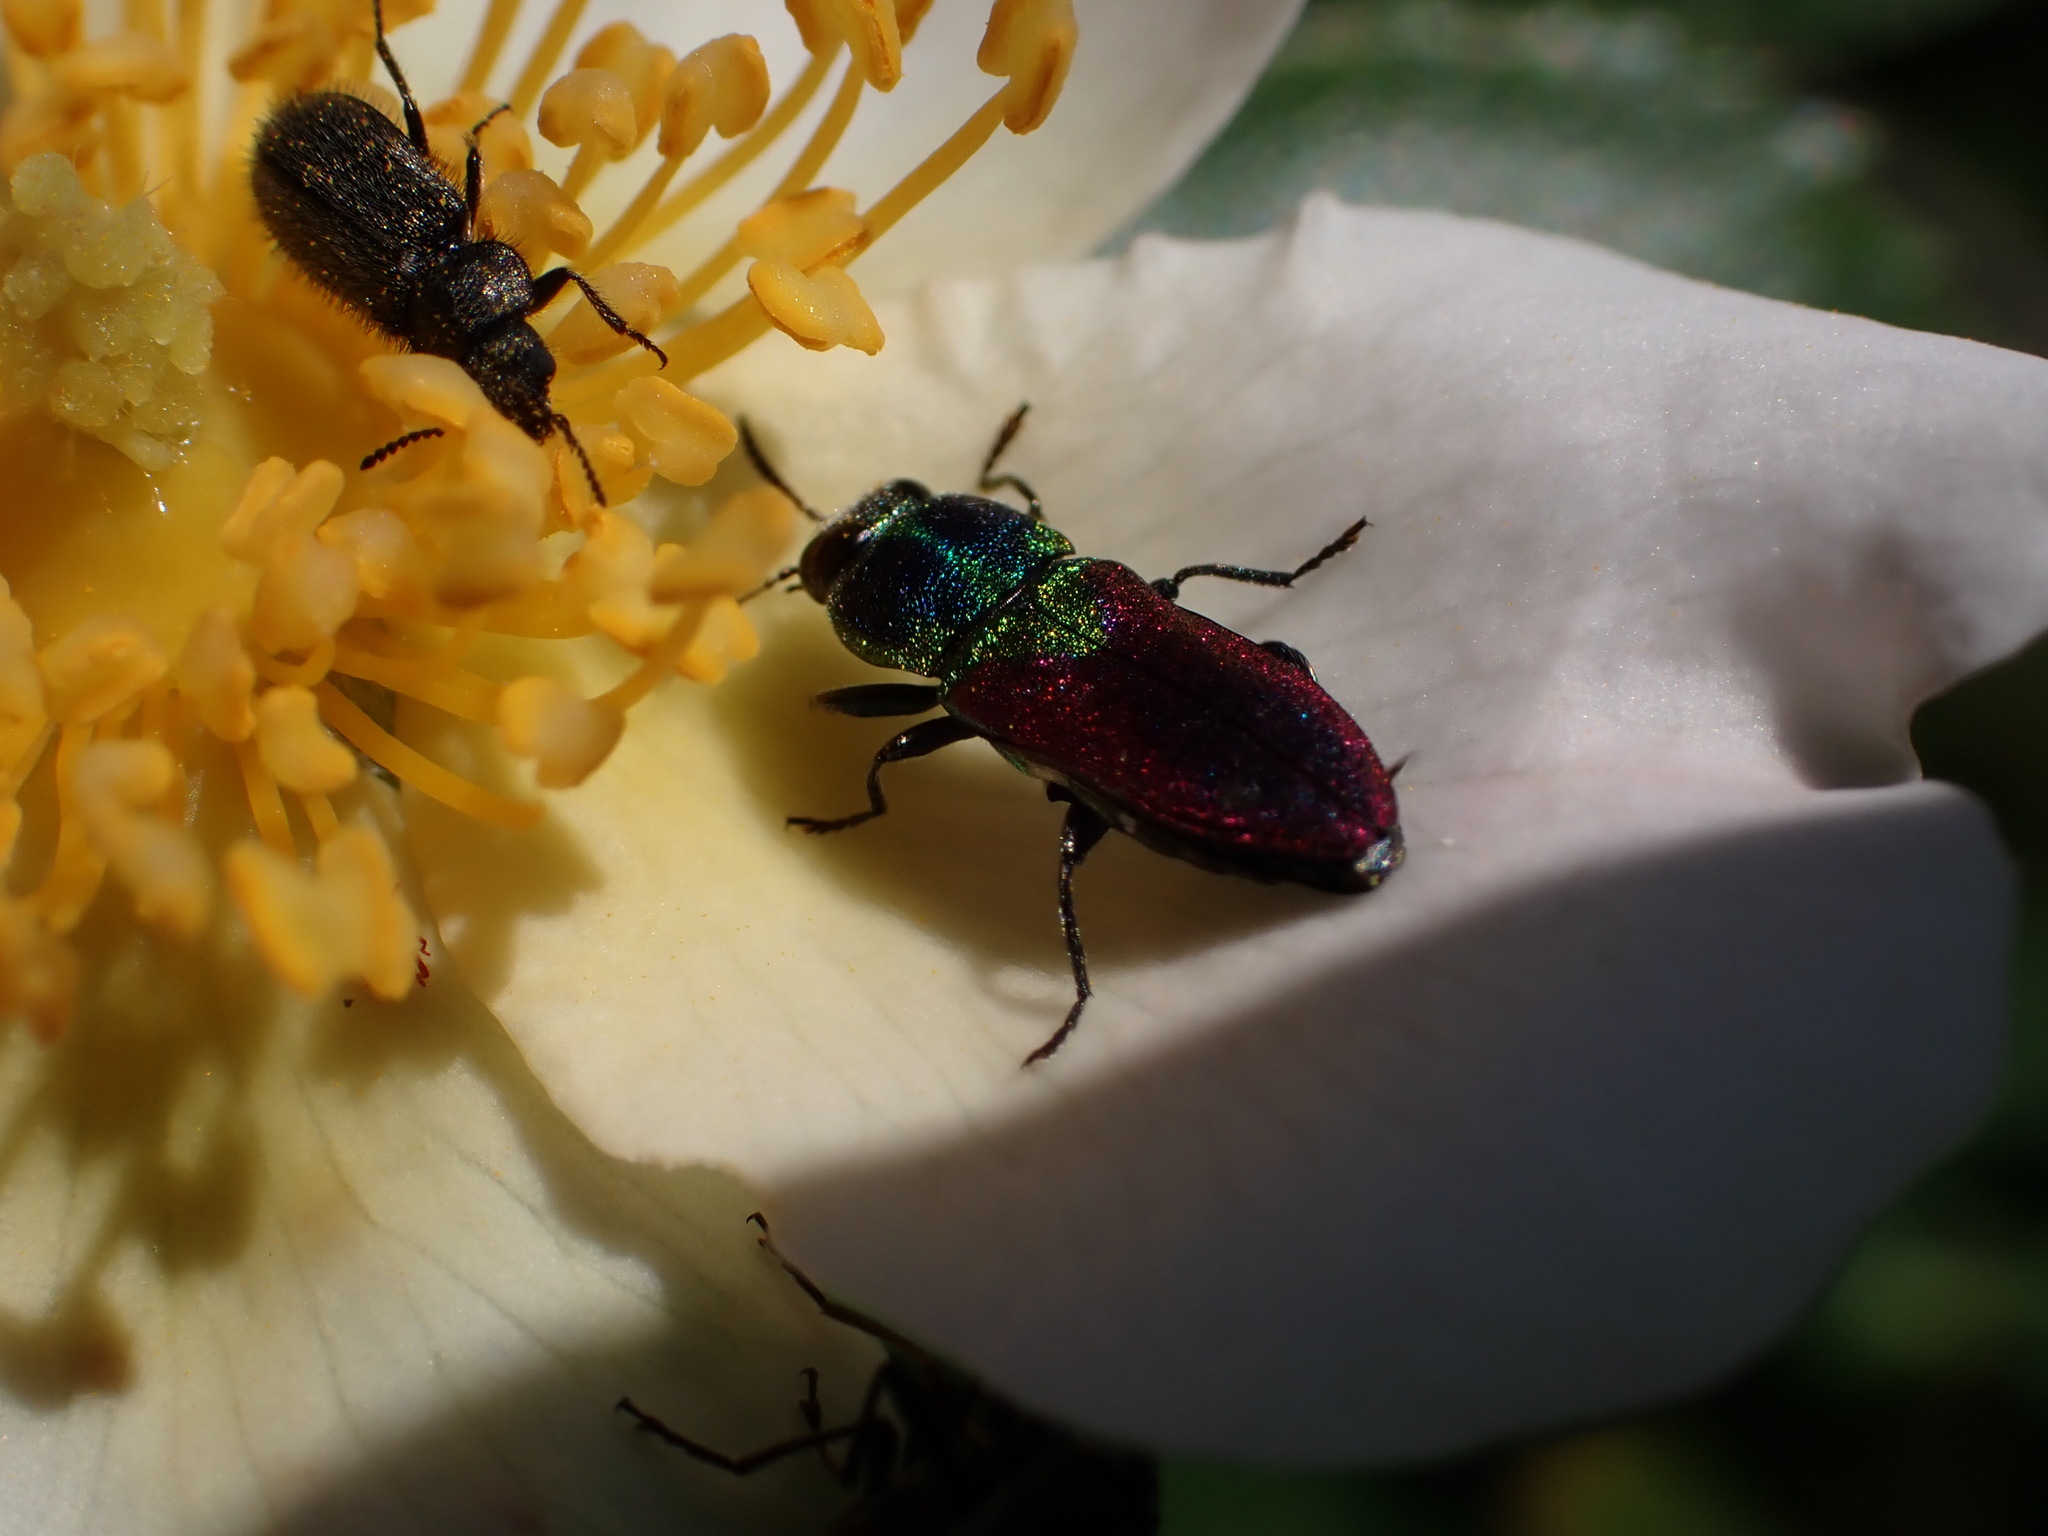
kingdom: Animalia
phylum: Arthropoda
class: Insecta
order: Coleoptera
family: Buprestidae
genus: Anthaxia
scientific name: Anthaxia salicis
